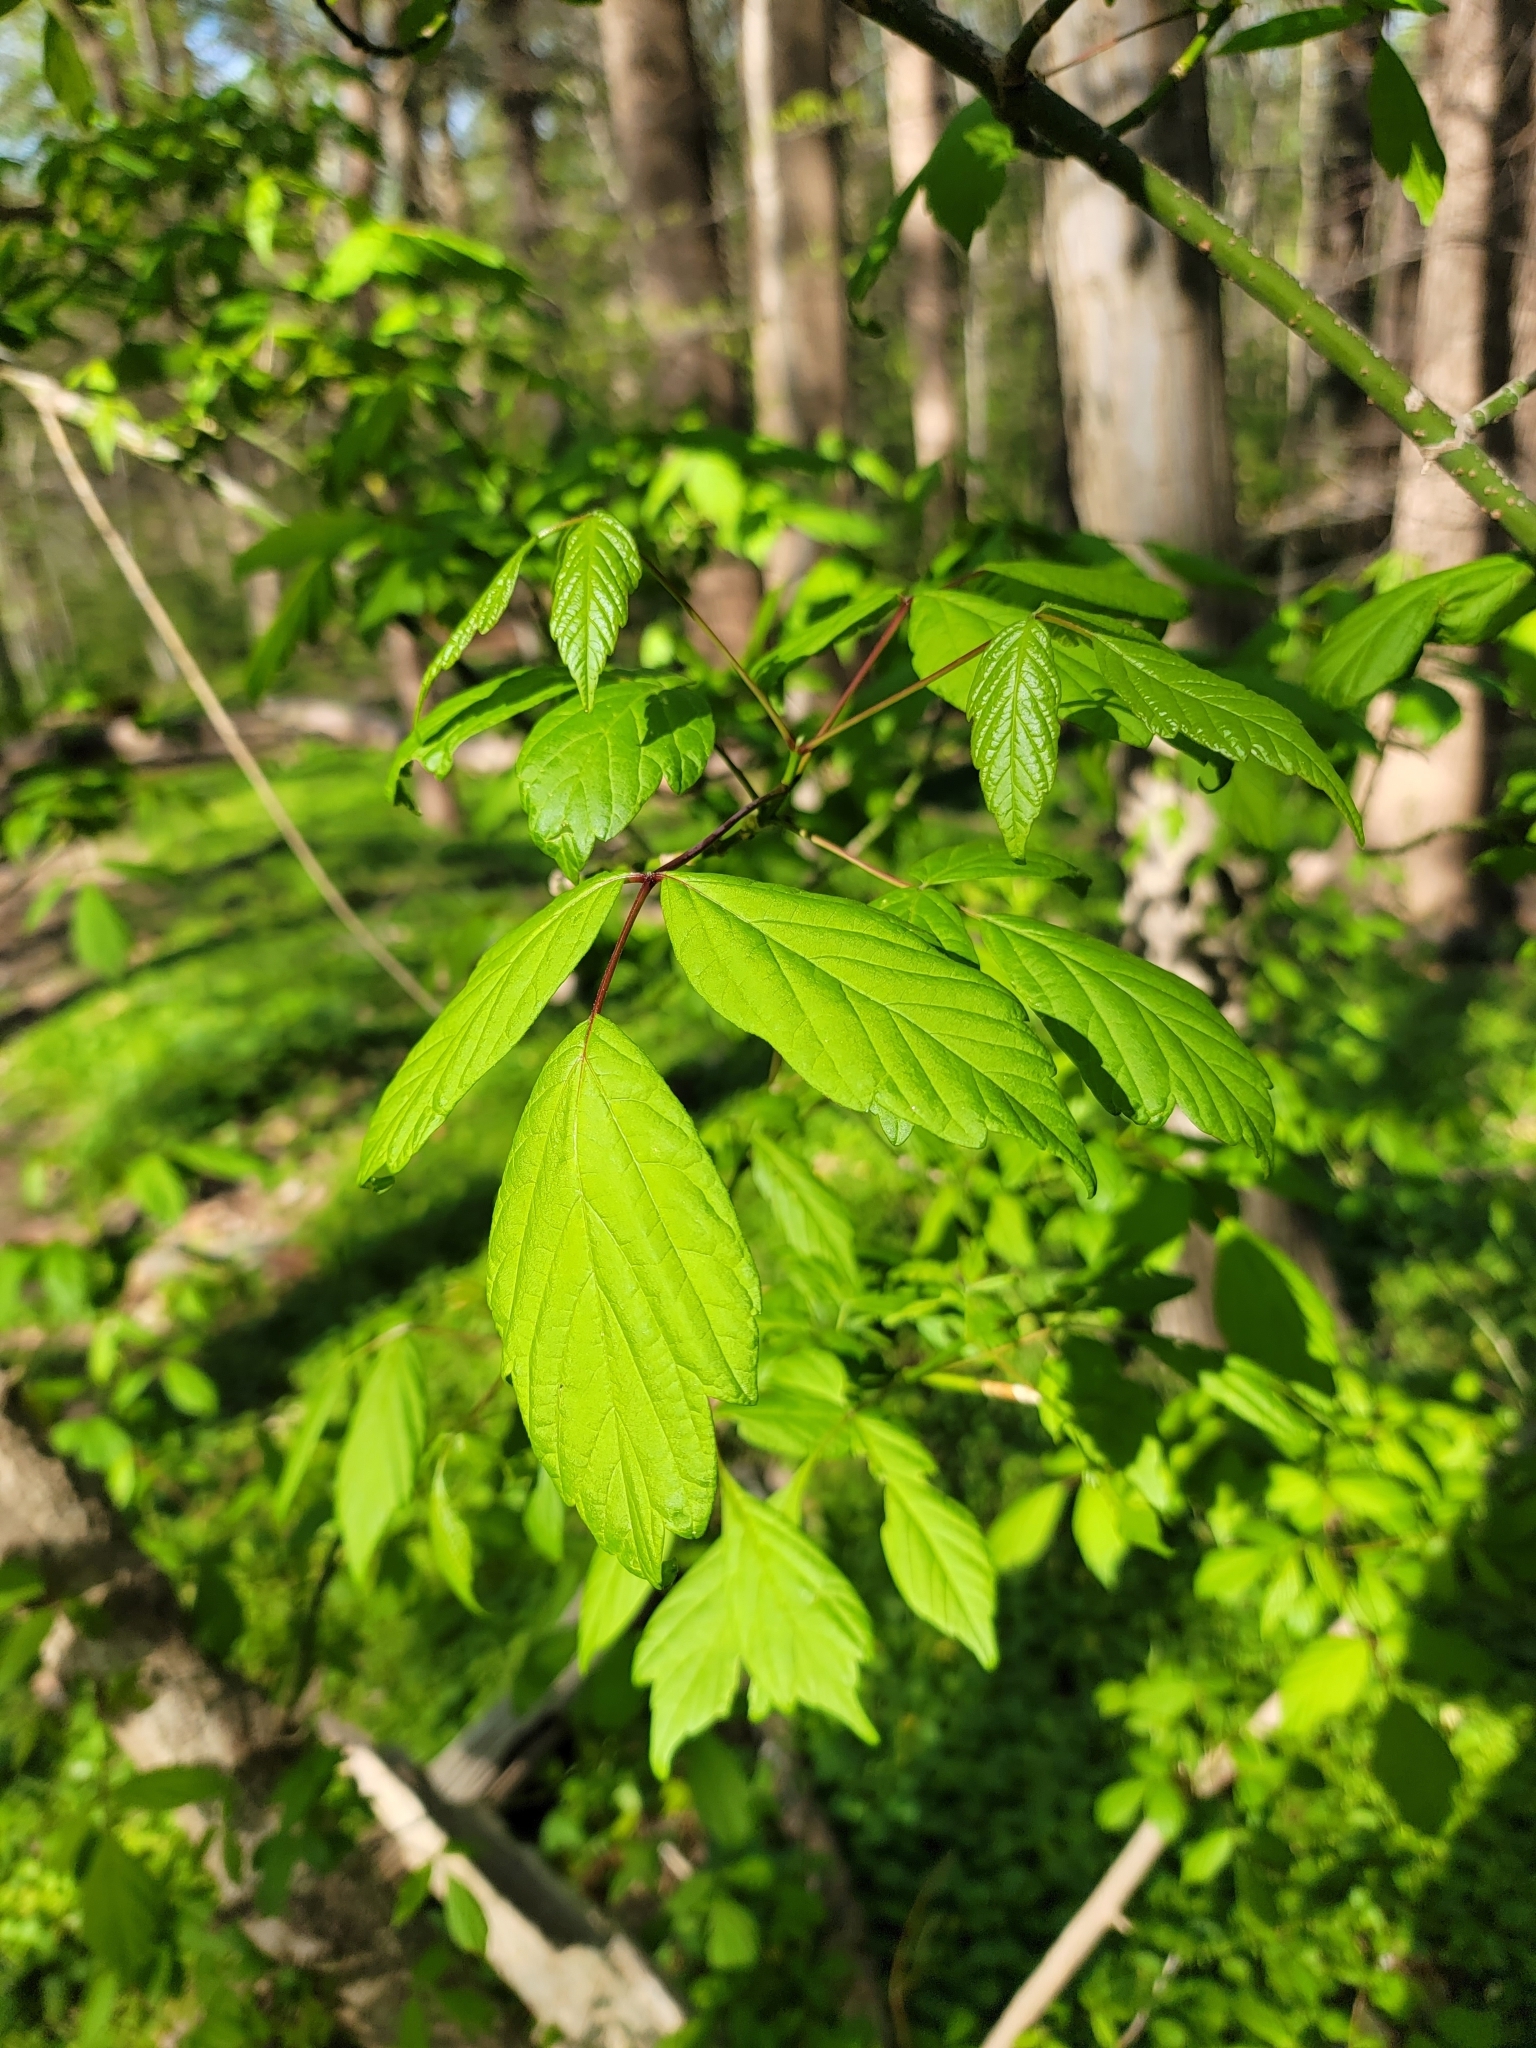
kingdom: Plantae
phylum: Tracheophyta
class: Magnoliopsida
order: Sapindales
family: Sapindaceae
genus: Acer
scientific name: Acer negundo
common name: Ashleaf maple
